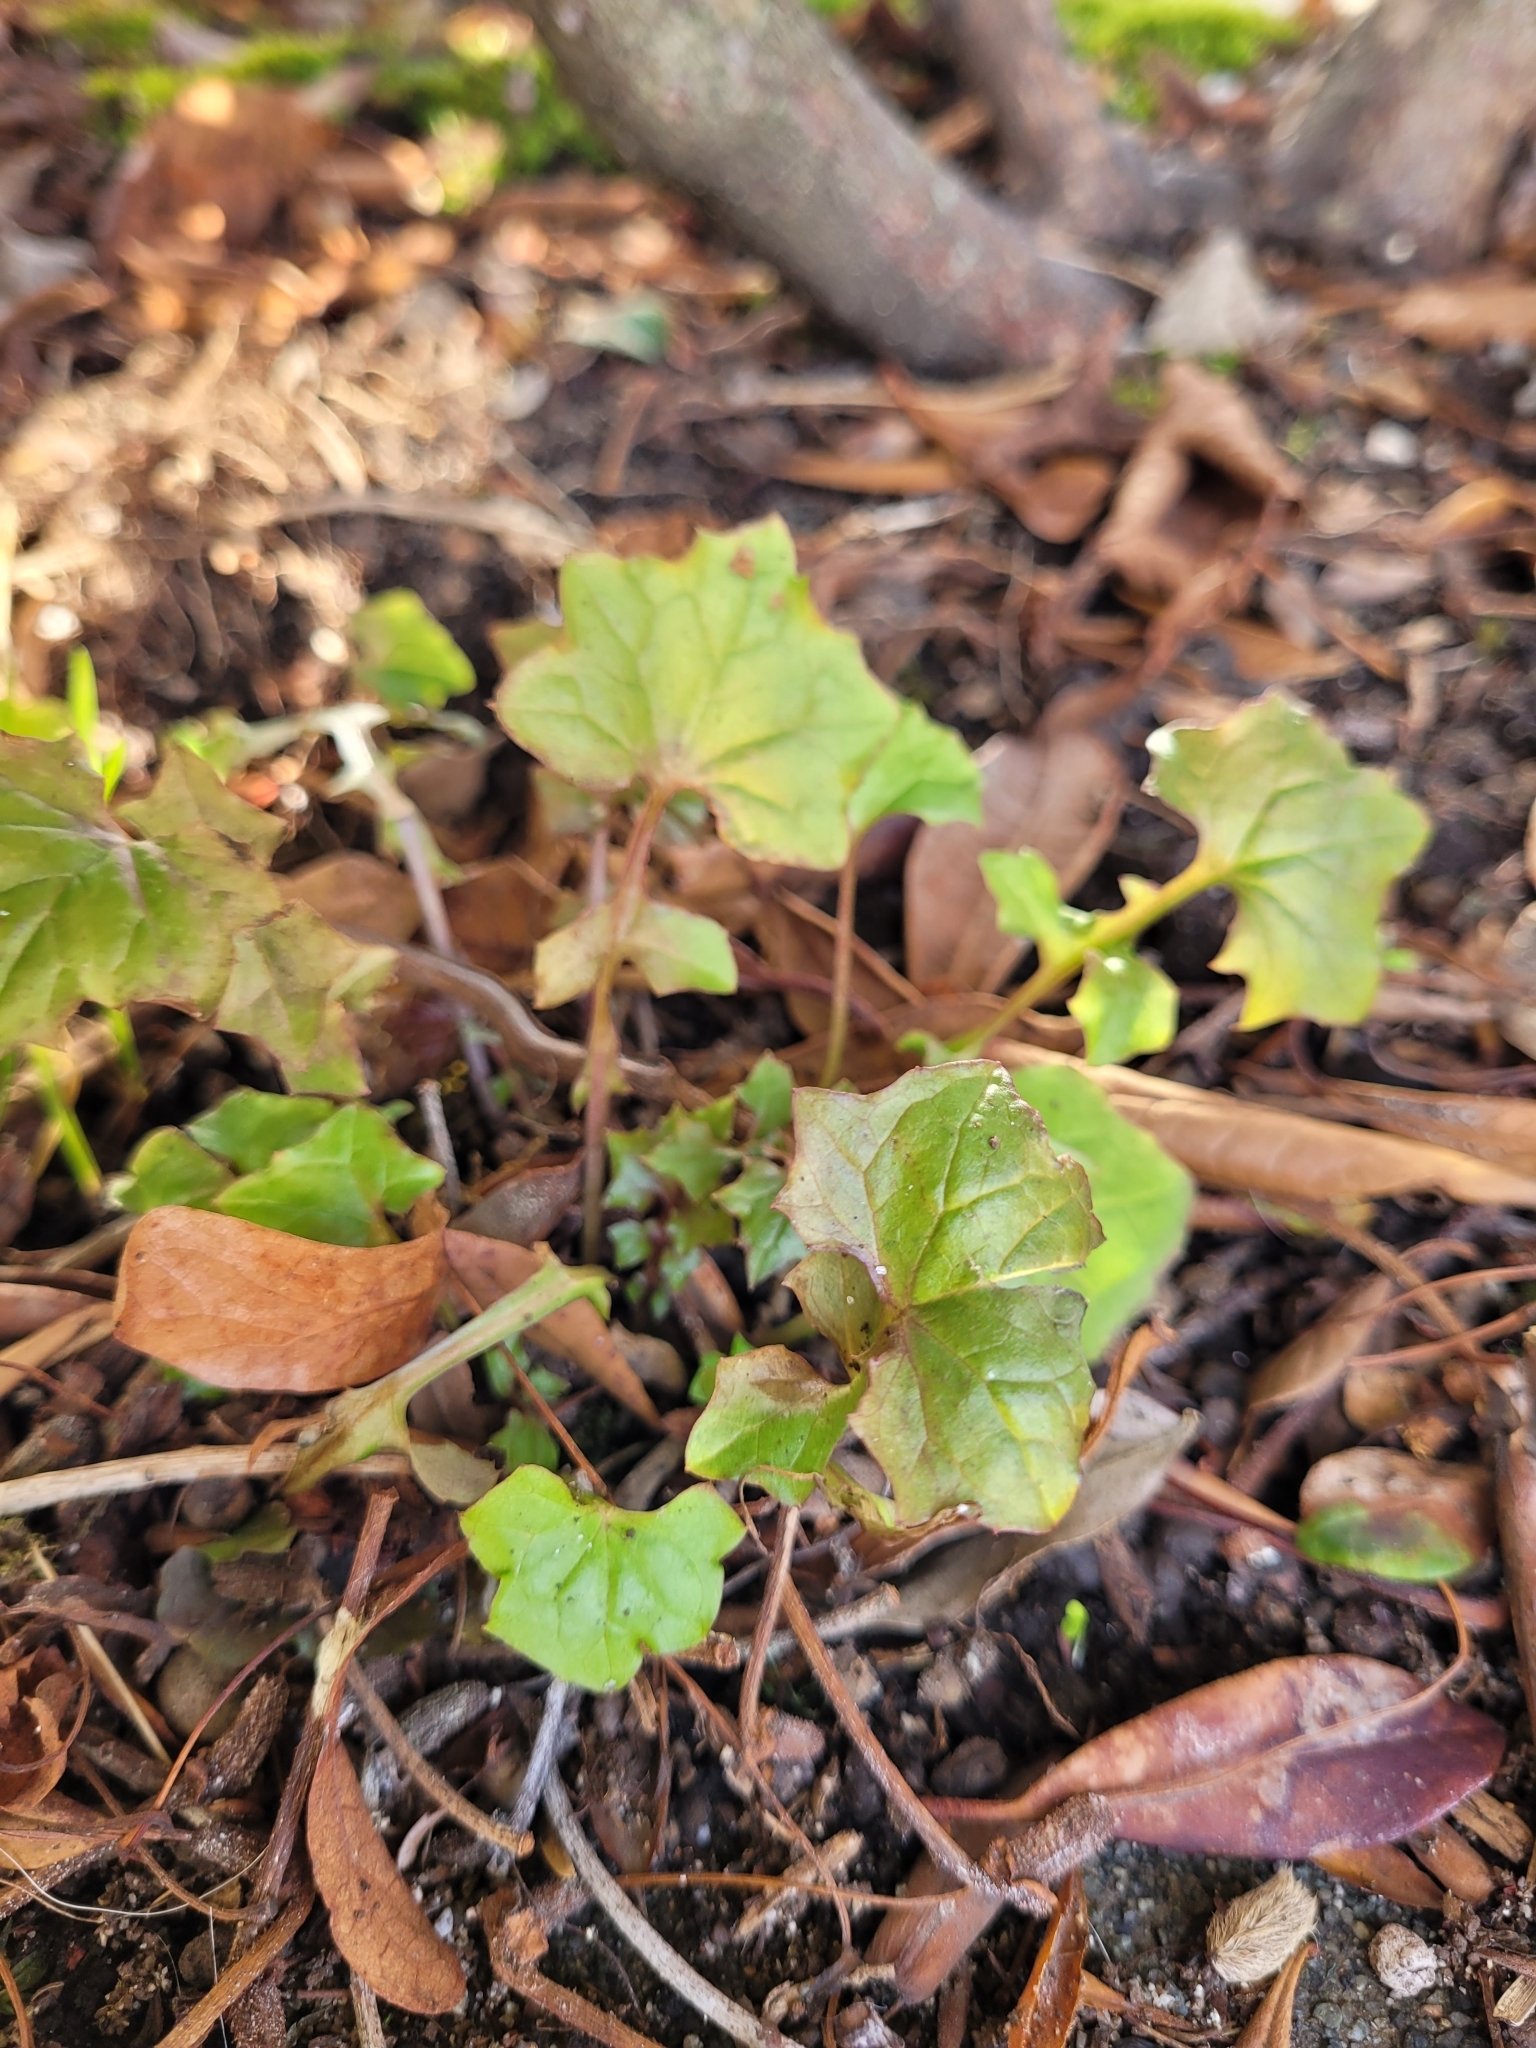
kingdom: Plantae
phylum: Tracheophyta
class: Magnoliopsida
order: Asterales
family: Asteraceae
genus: Mycelis
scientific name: Mycelis muralis
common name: Wall lettuce
